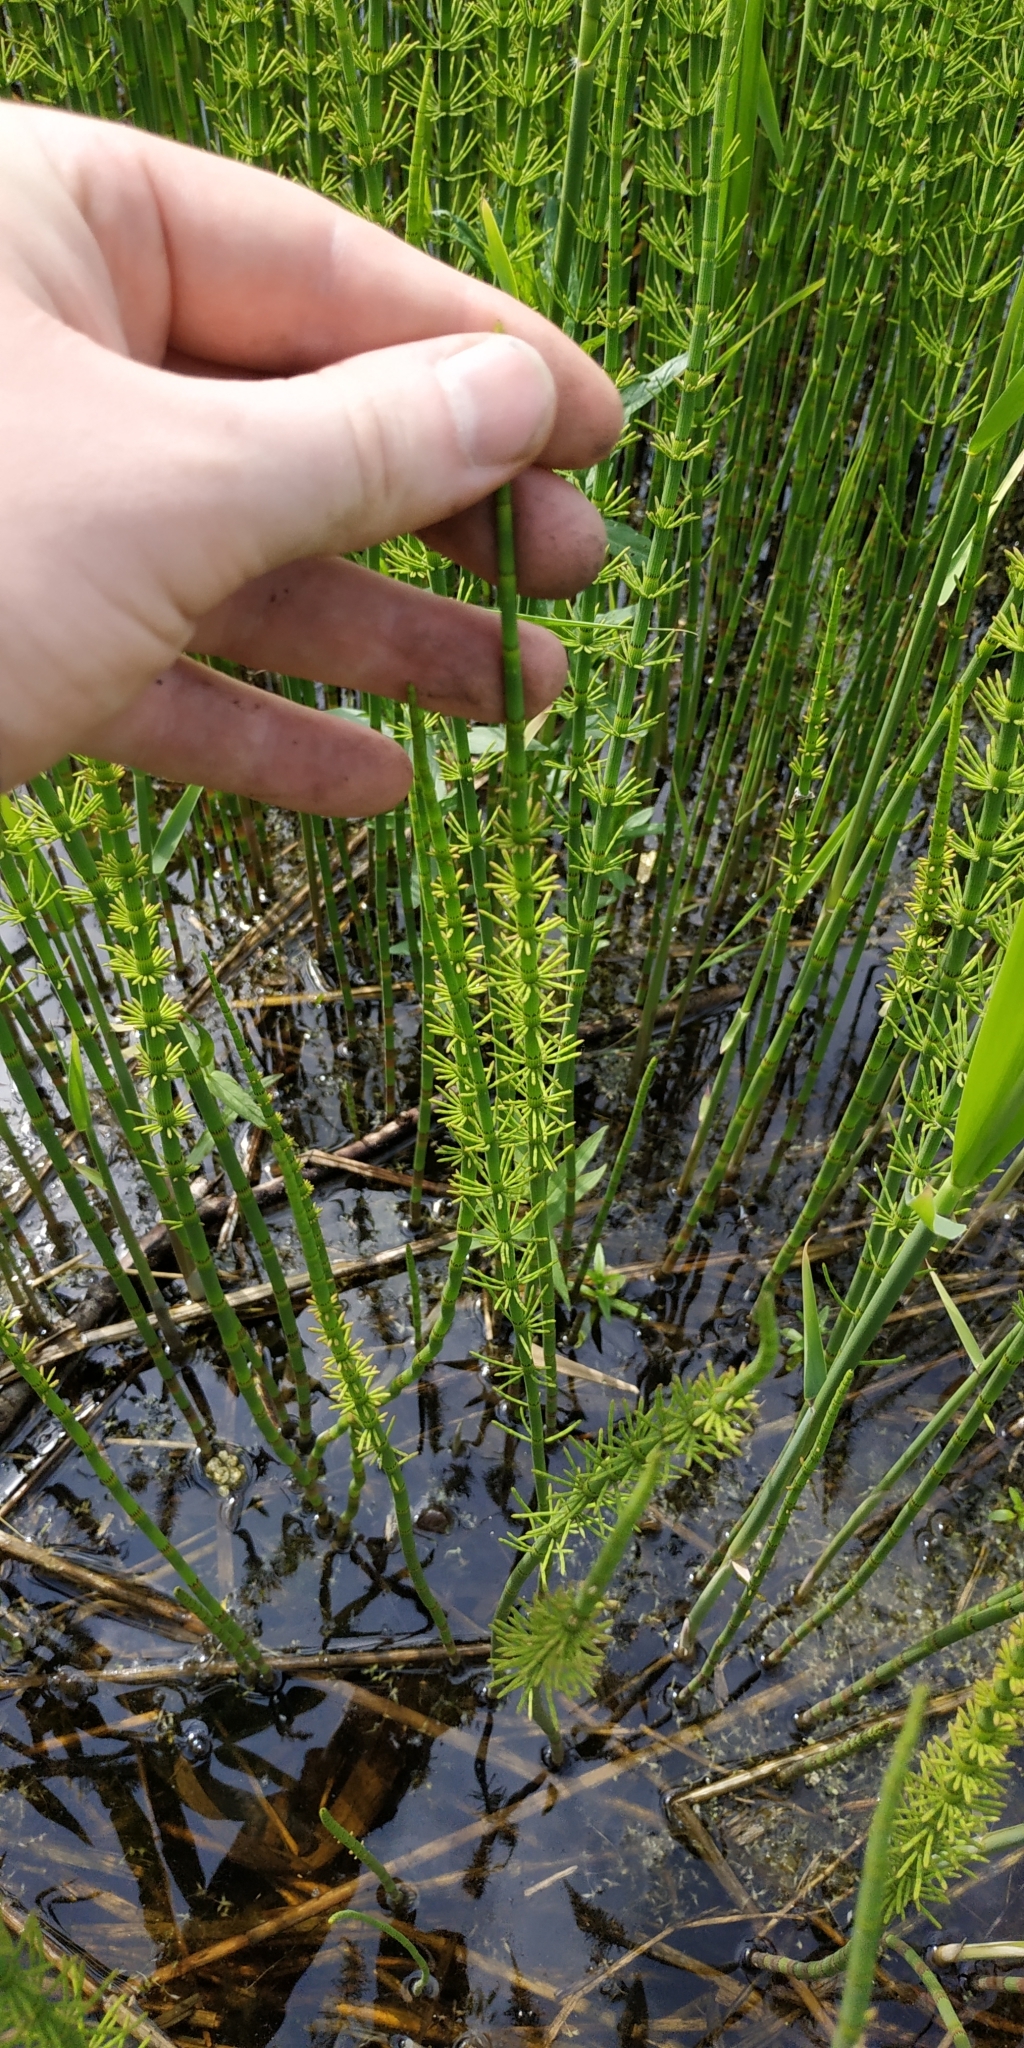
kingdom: Plantae
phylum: Tracheophyta
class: Polypodiopsida
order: Equisetales
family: Equisetaceae
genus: Equisetum
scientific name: Equisetum fluviatile
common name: Water horsetail
